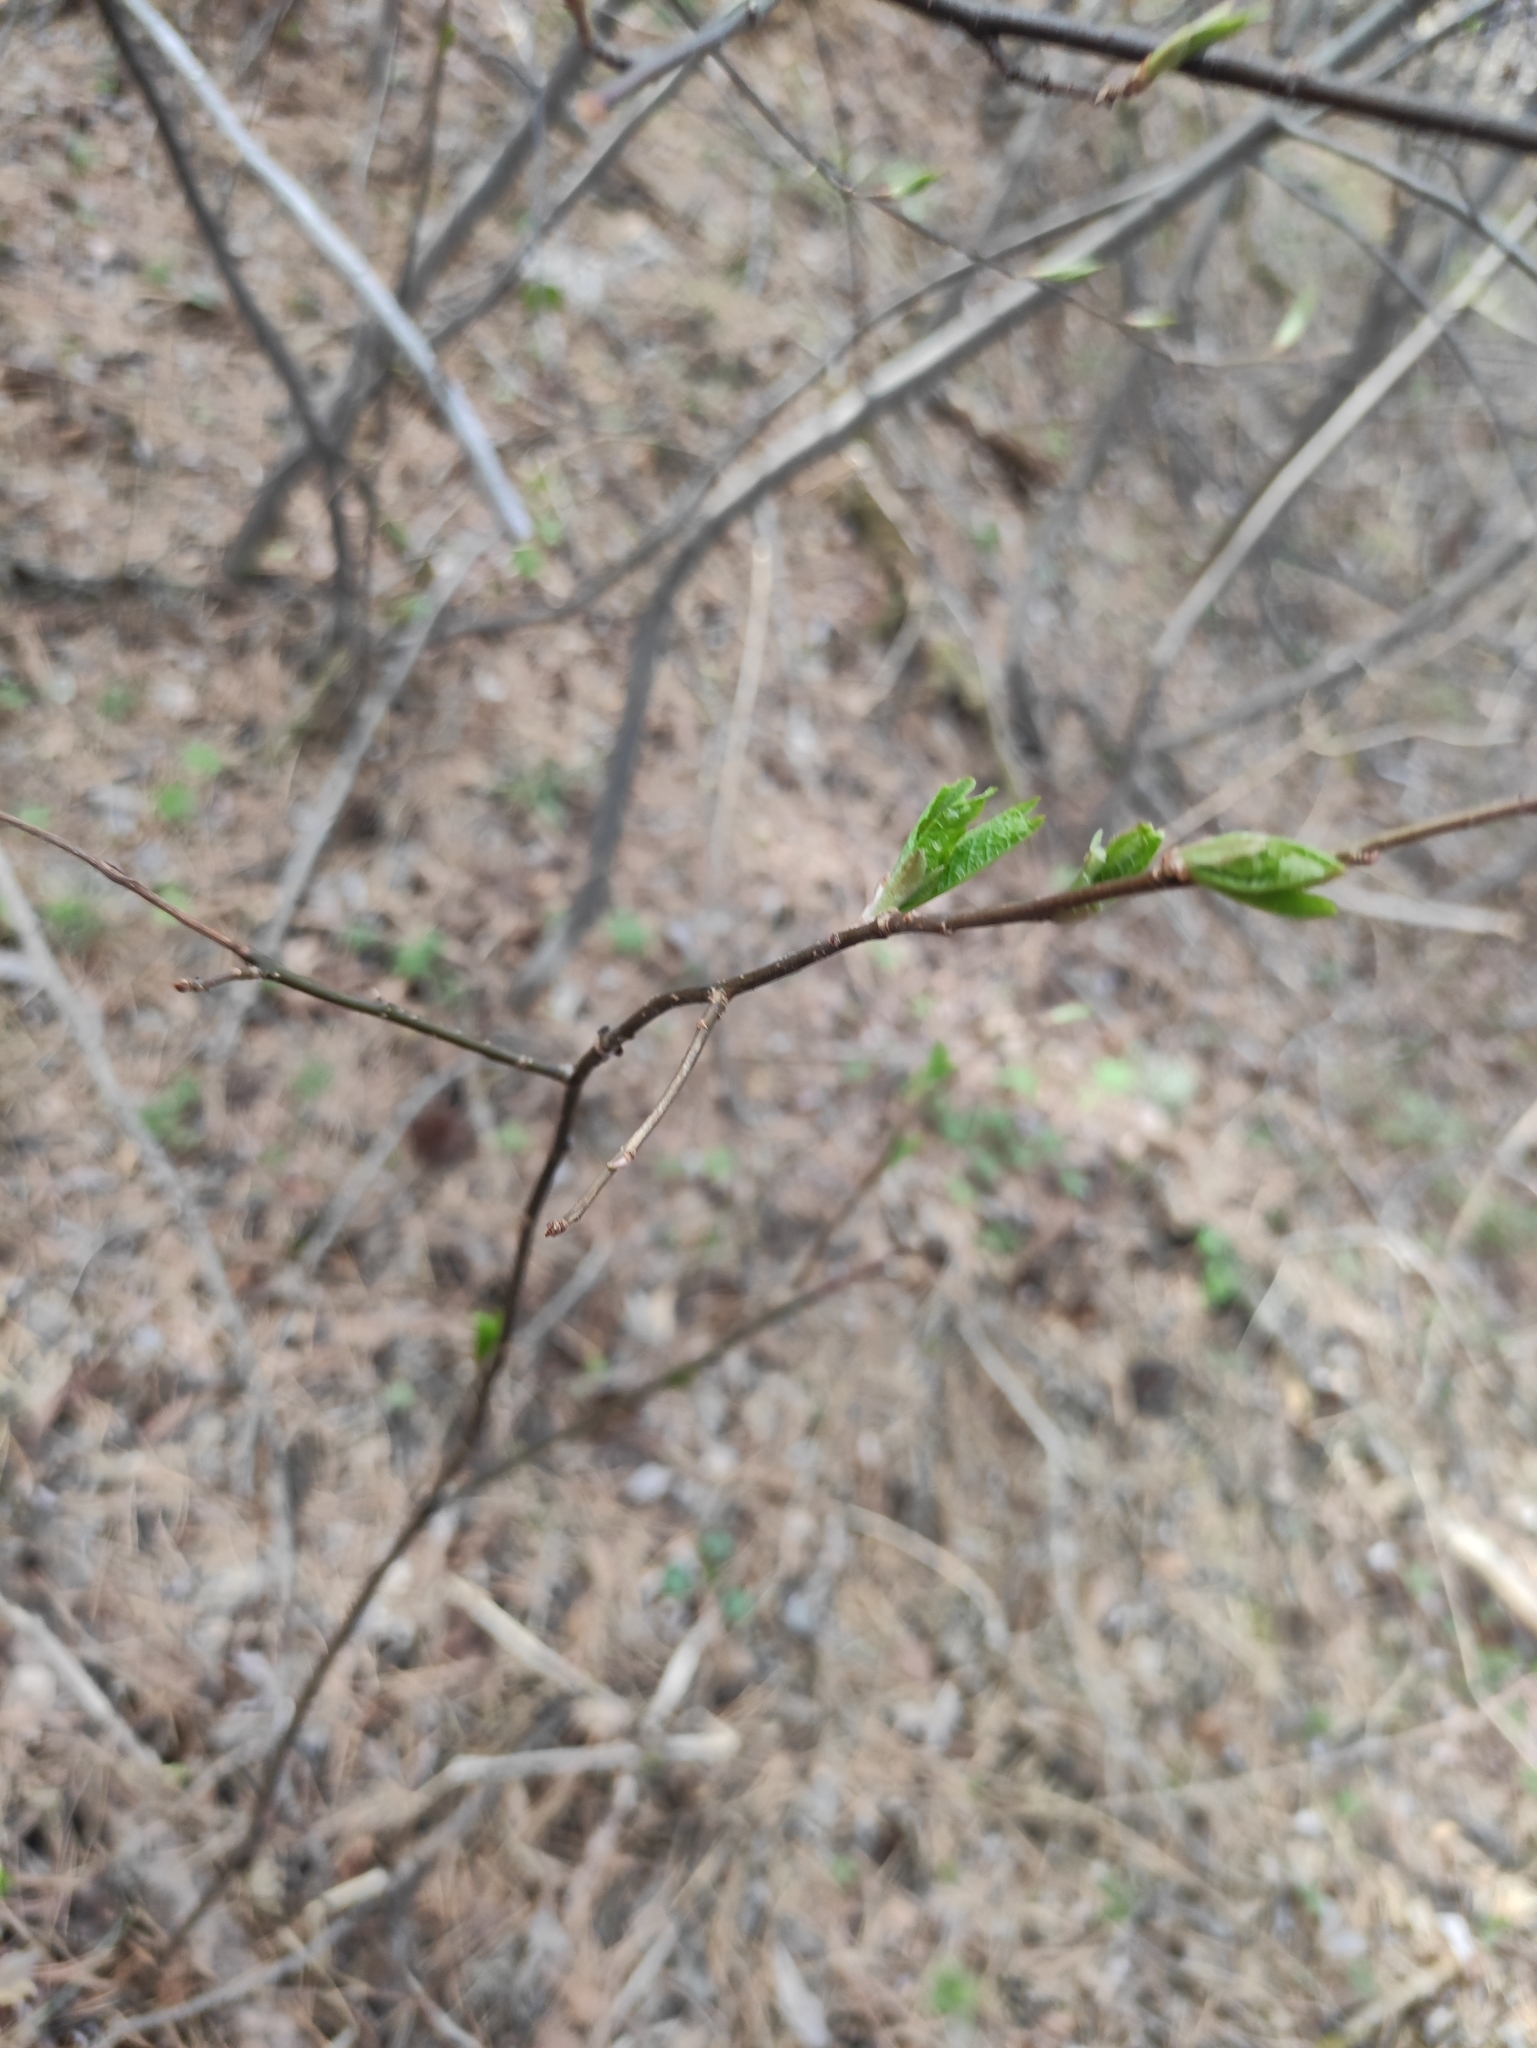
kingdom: Plantae
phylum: Tracheophyta
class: Magnoliopsida
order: Rosales
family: Rosaceae
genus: Prunus
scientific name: Prunus padus
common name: Bird cherry
